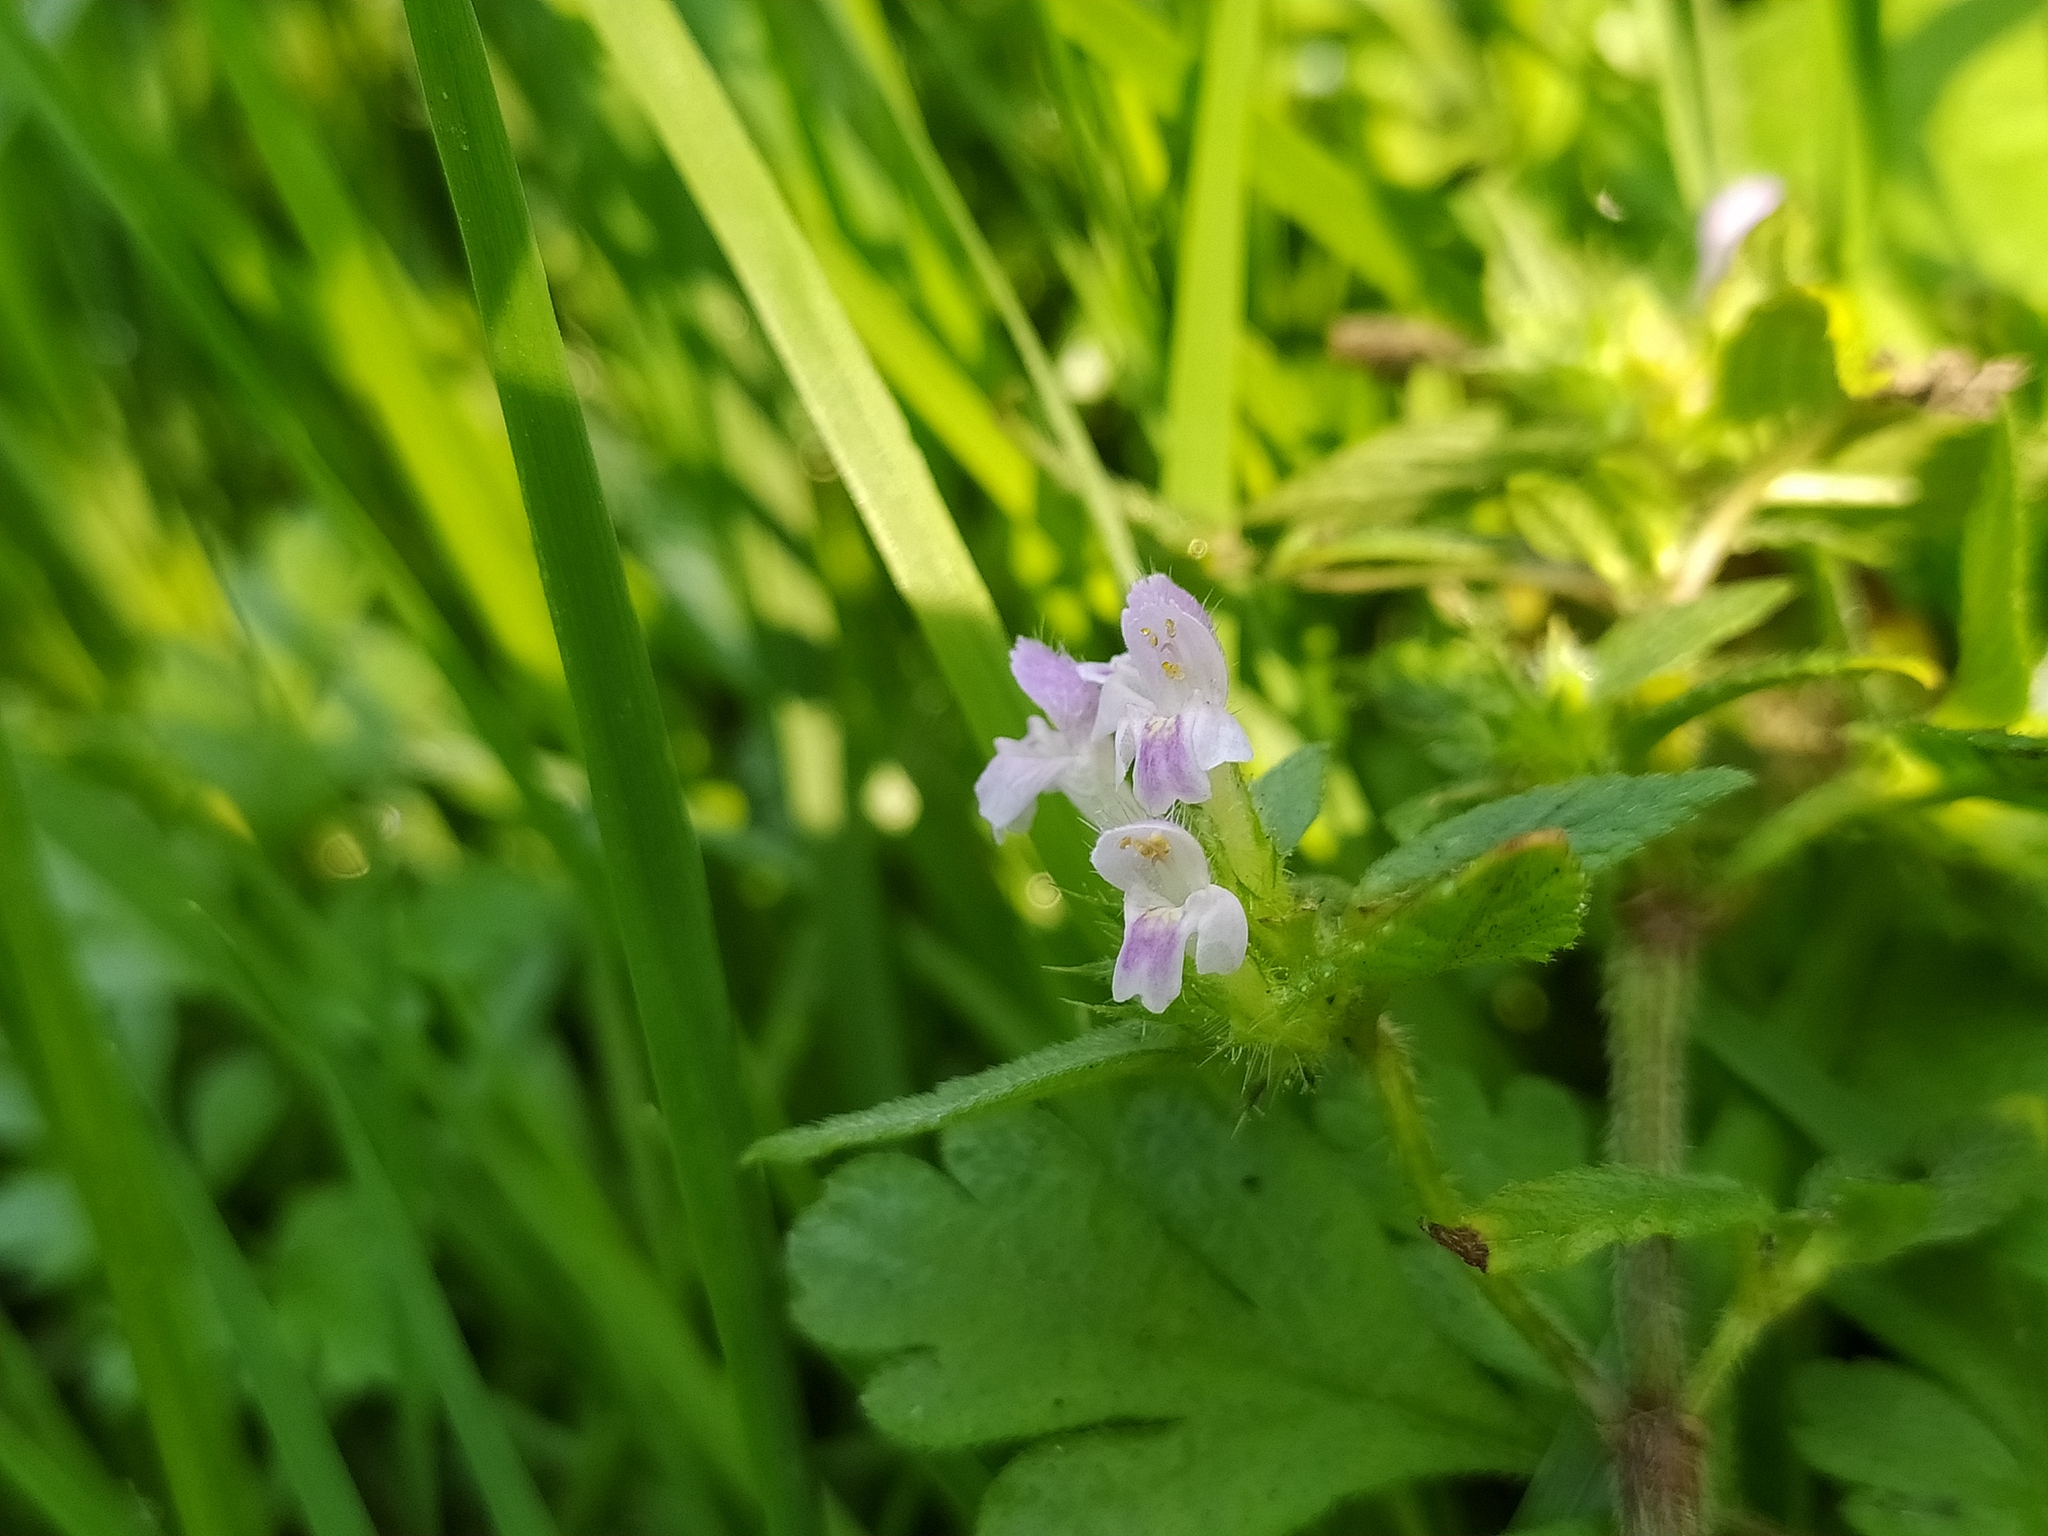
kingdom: Plantae
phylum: Tracheophyta
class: Magnoliopsida
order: Lamiales
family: Lamiaceae
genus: Galeopsis
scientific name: Galeopsis bifida
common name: Bifid hemp-nettle
